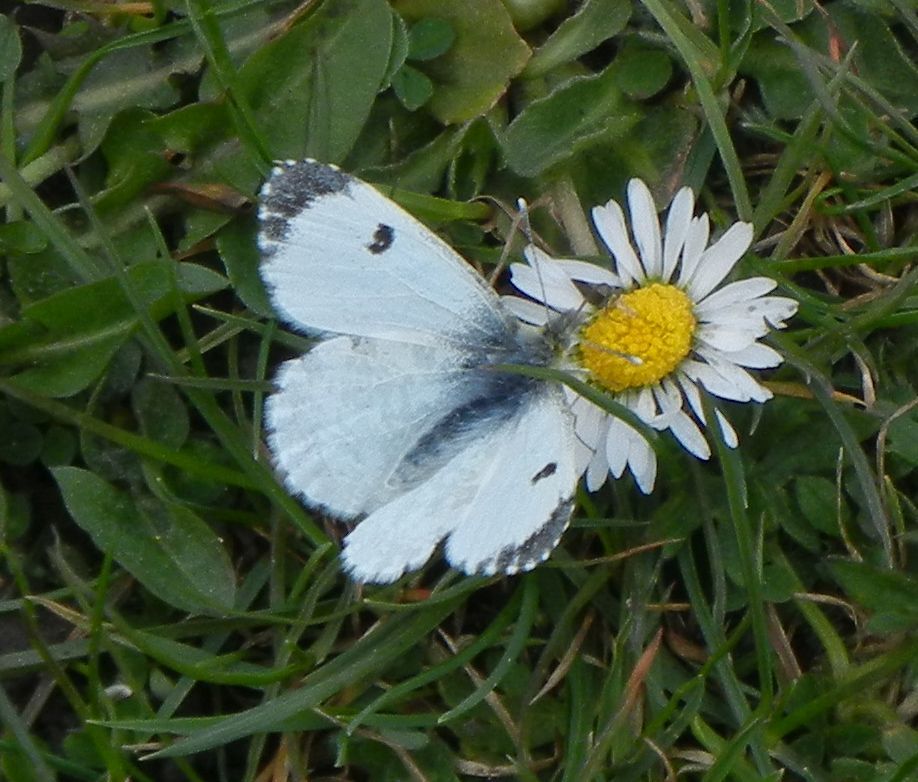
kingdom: Animalia
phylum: Arthropoda
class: Insecta
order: Lepidoptera
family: Pieridae
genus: Anthocharis
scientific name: Anthocharis cardamines
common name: Orange-tip
